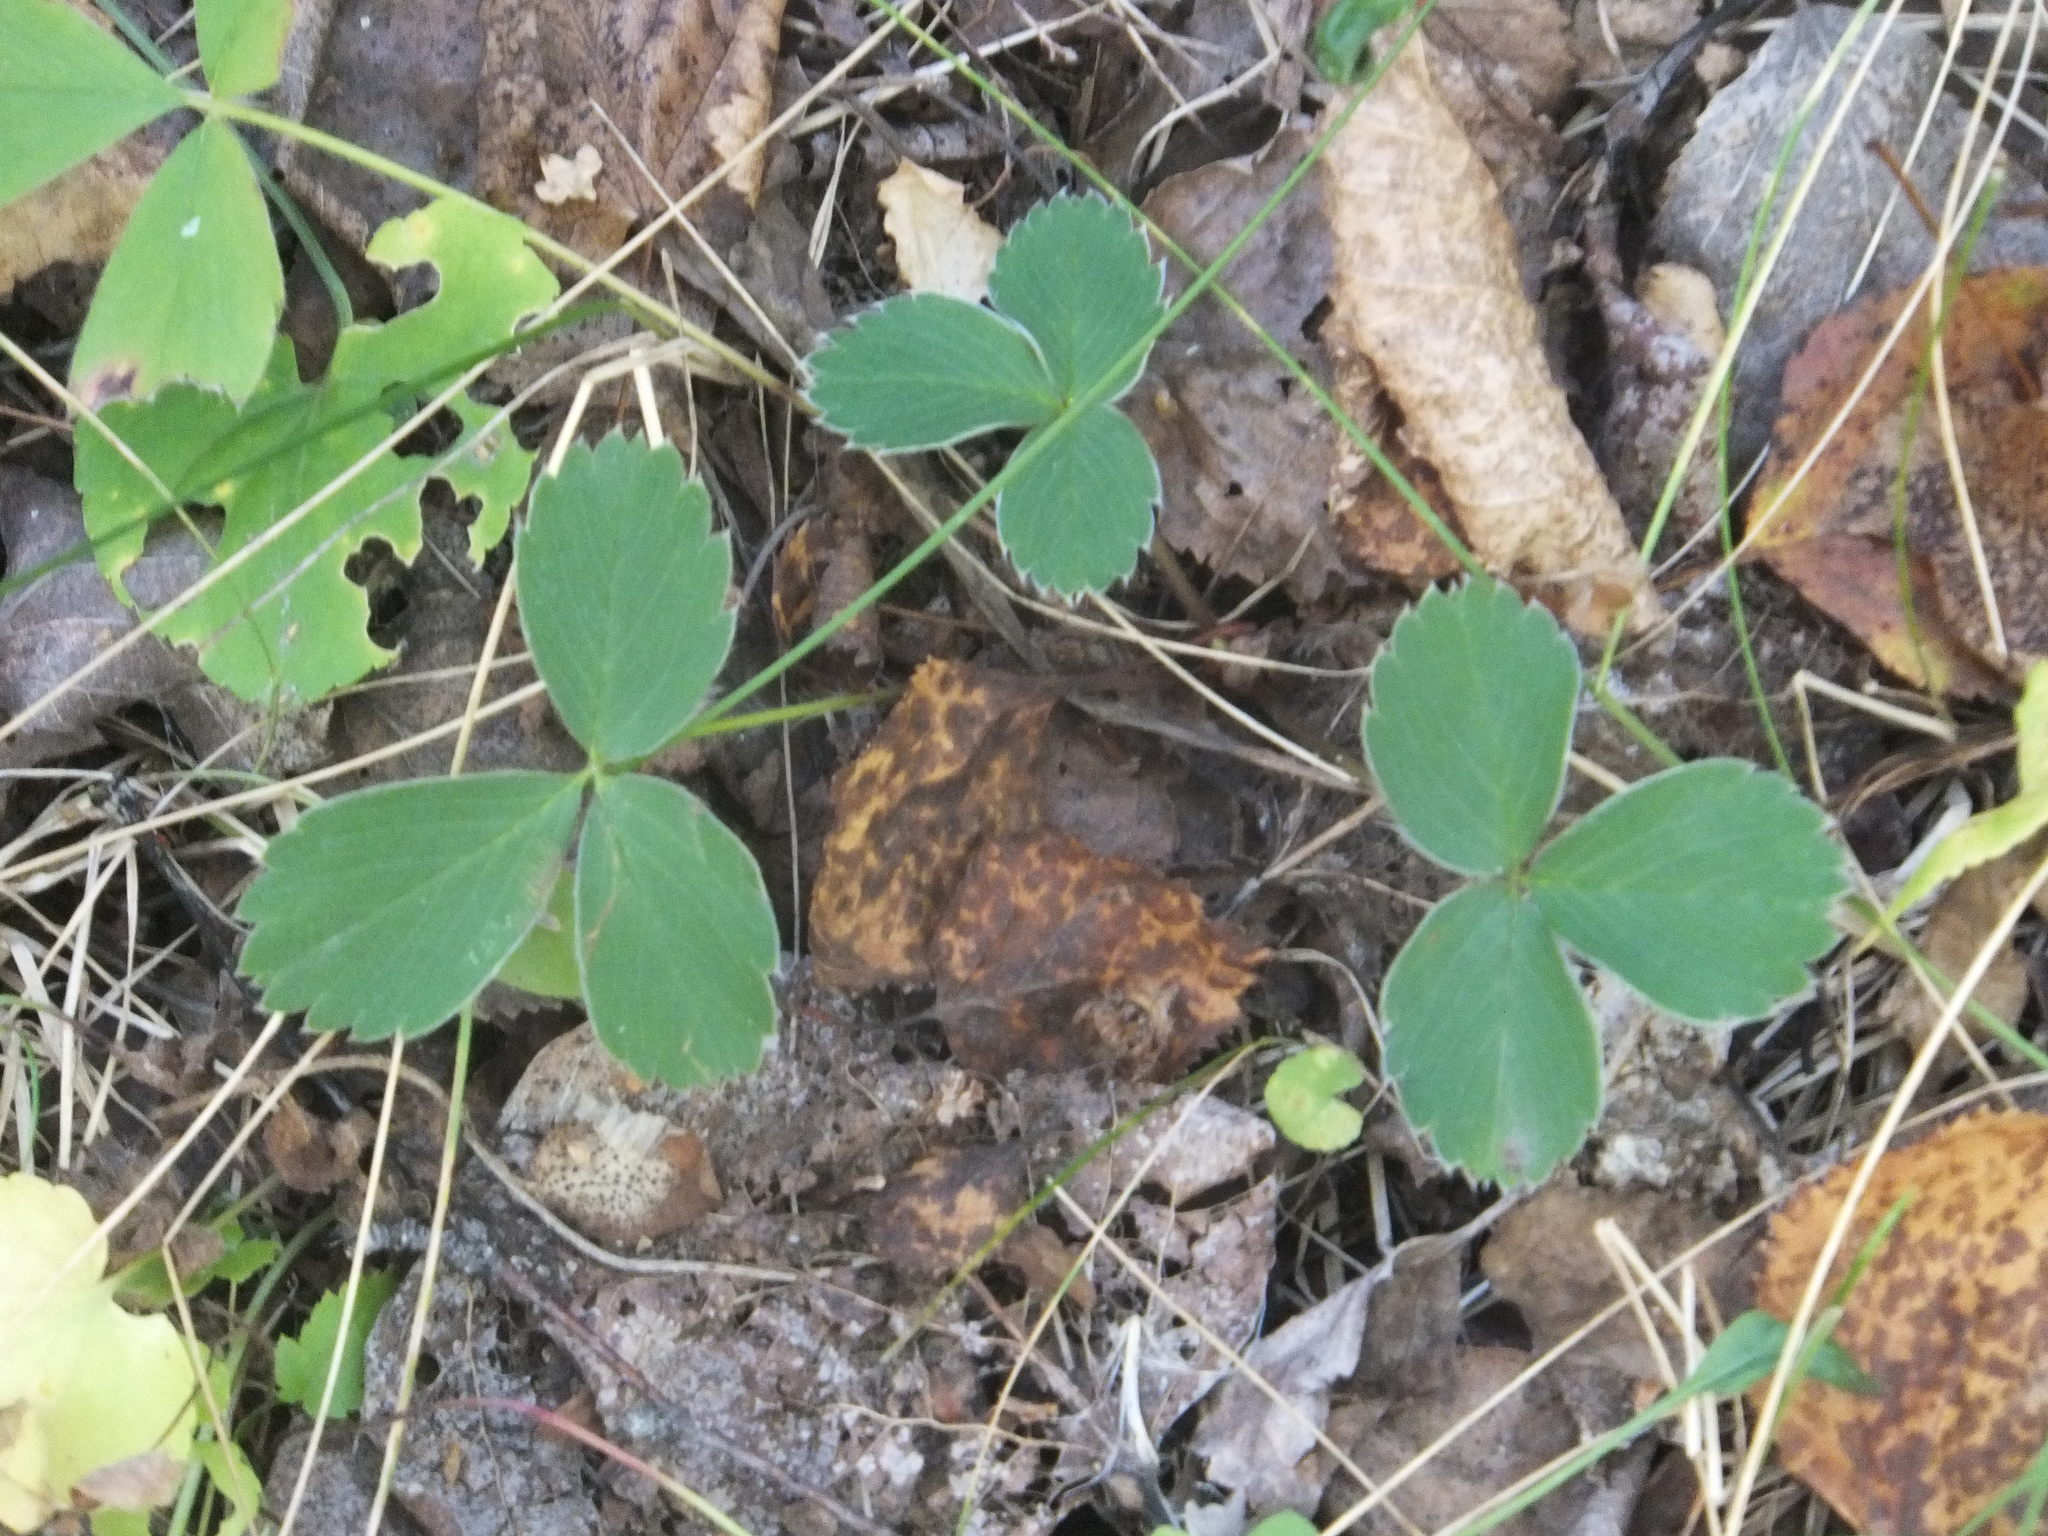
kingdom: Plantae
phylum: Tracheophyta
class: Magnoliopsida
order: Rosales
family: Rosaceae
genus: Fragaria
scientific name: Fragaria virginiana
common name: Thickleaved wild strawberry
